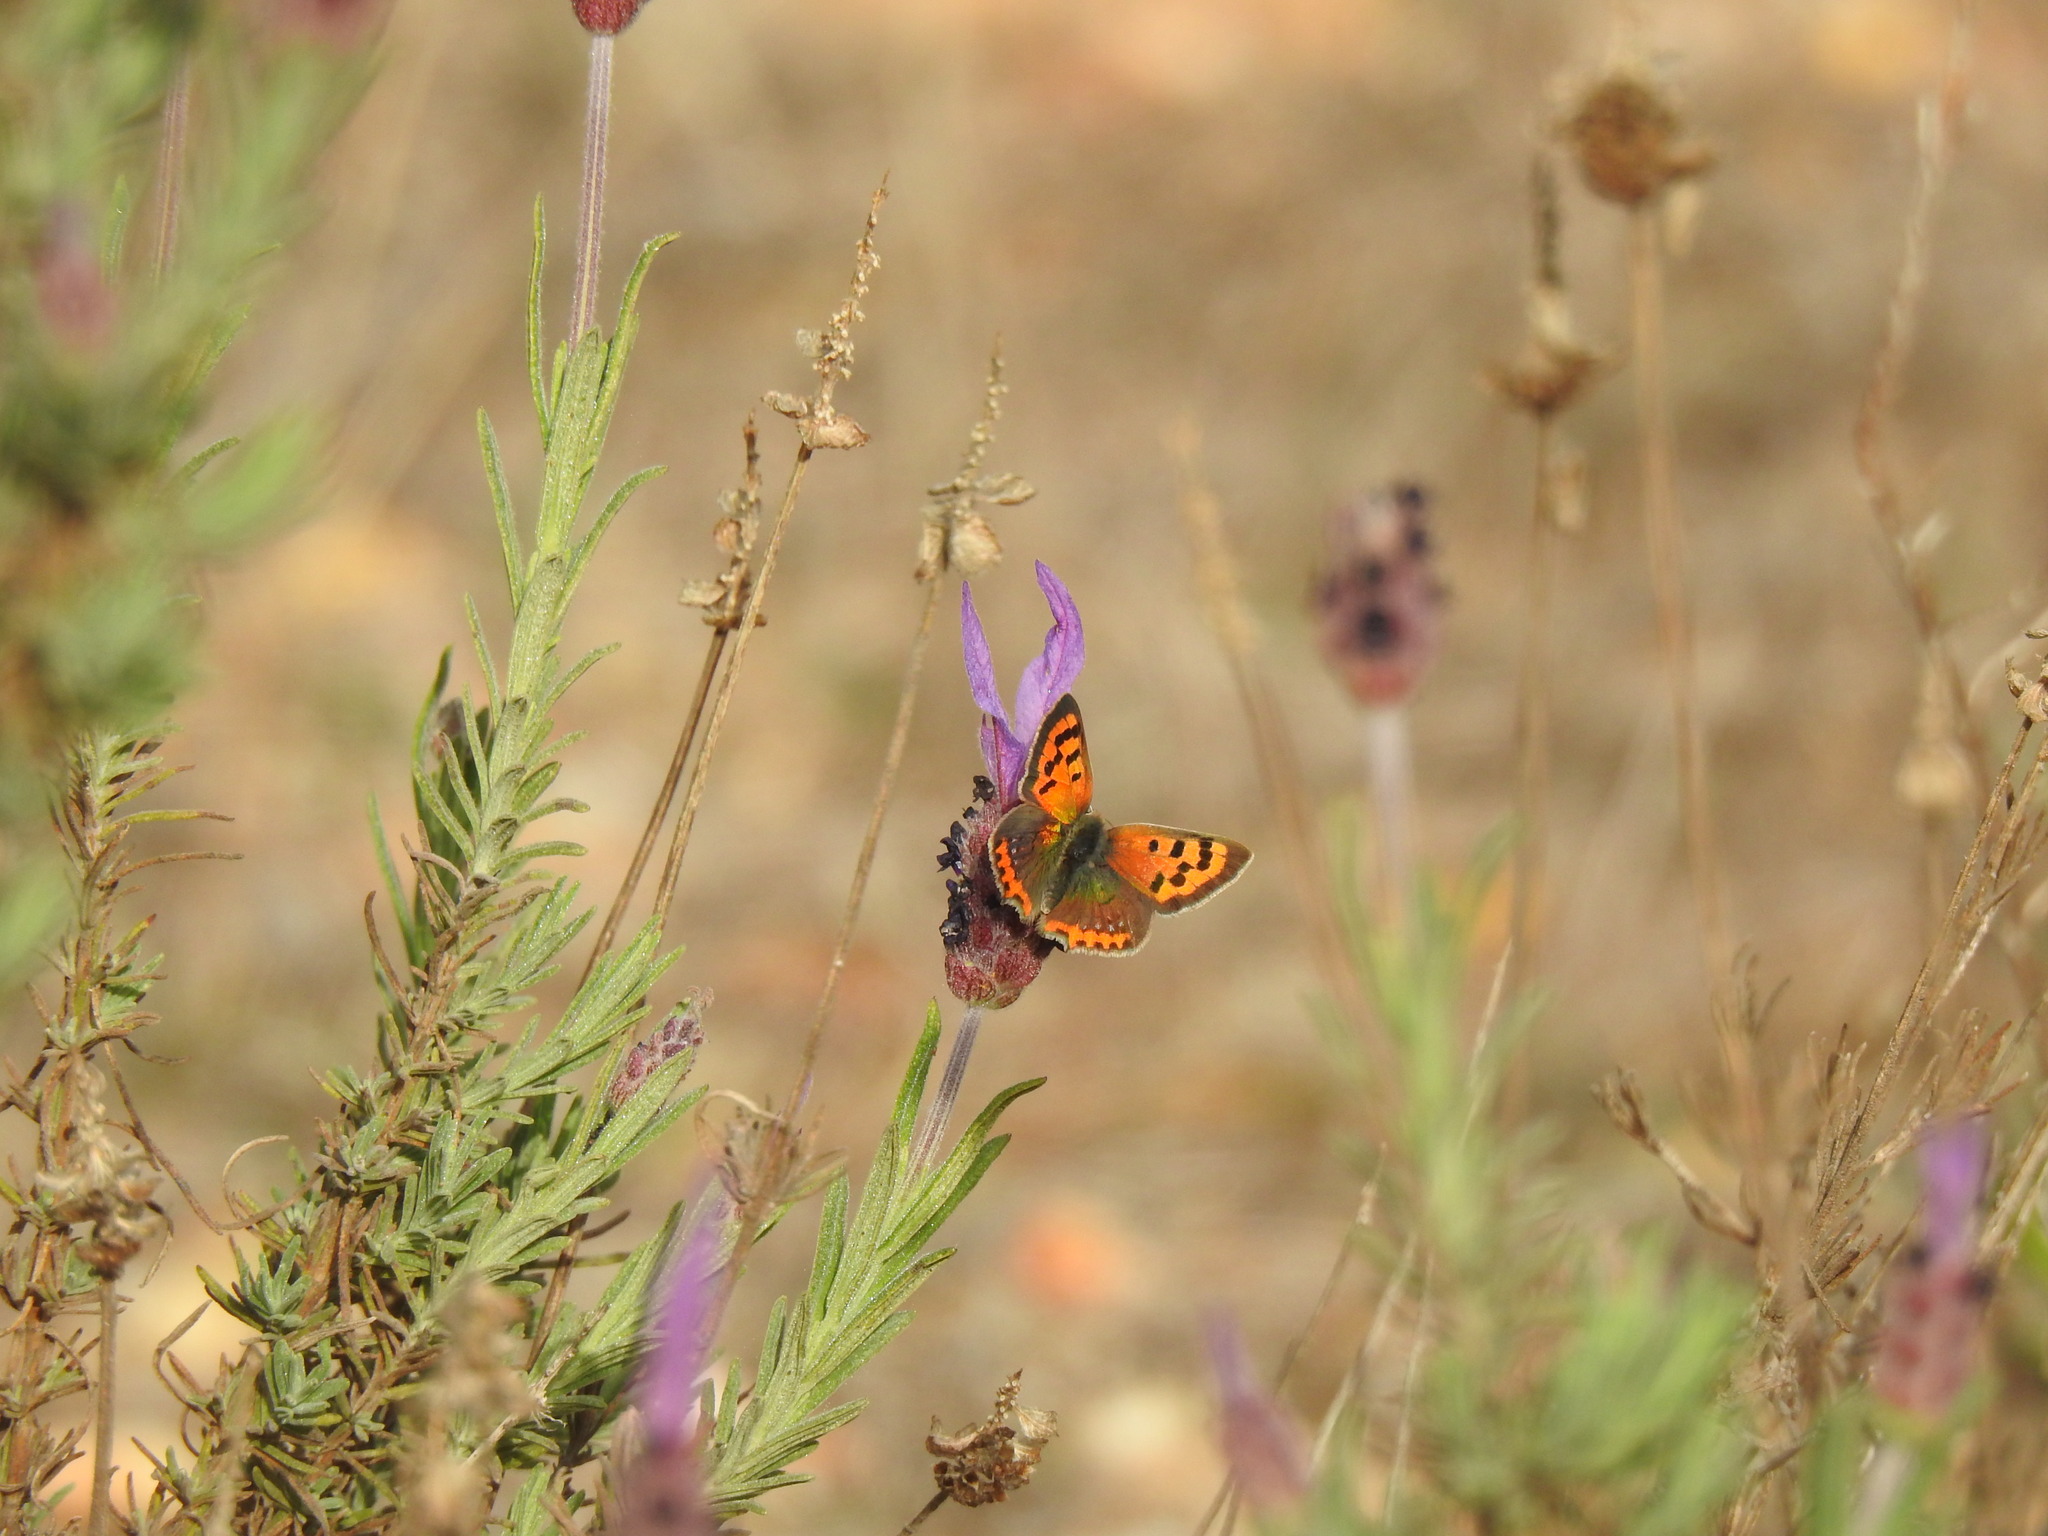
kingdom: Animalia
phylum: Arthropoda
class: Insecta
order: Lepidoptera
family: Lycaenidae
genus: Lycaena
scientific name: Lycaena phlaeas
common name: Small copper
